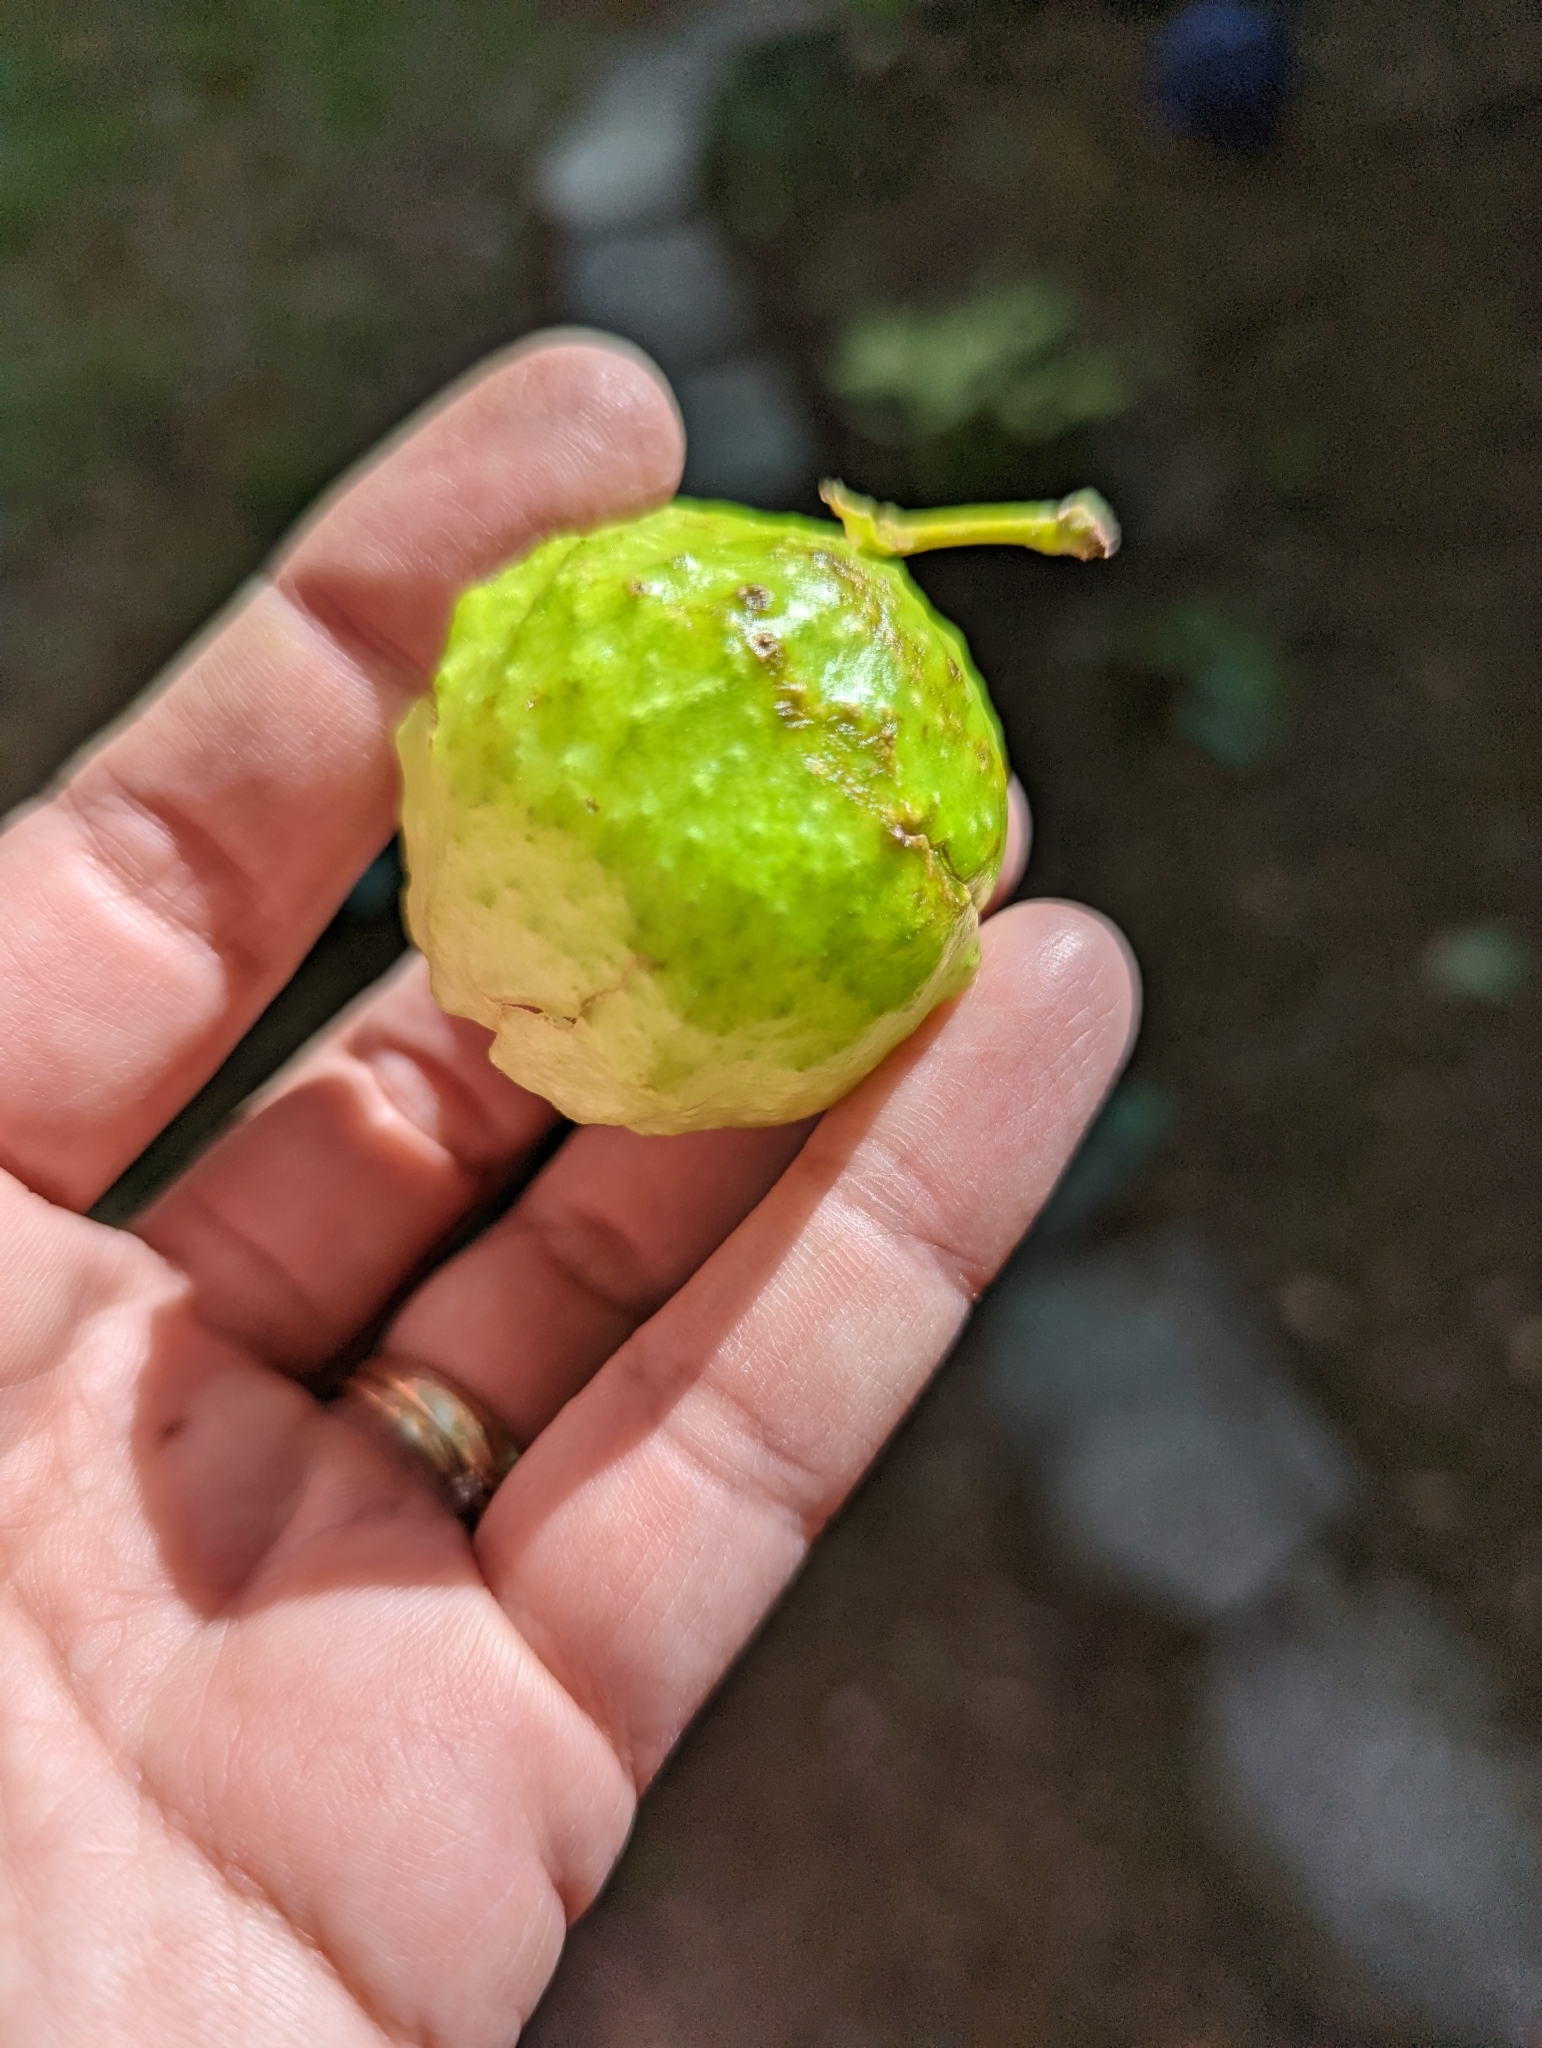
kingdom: Animalia
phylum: Arthropoda
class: Insecta
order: Hymenoptera
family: Cynipidae
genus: Amphibolips
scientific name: Amphibolips
